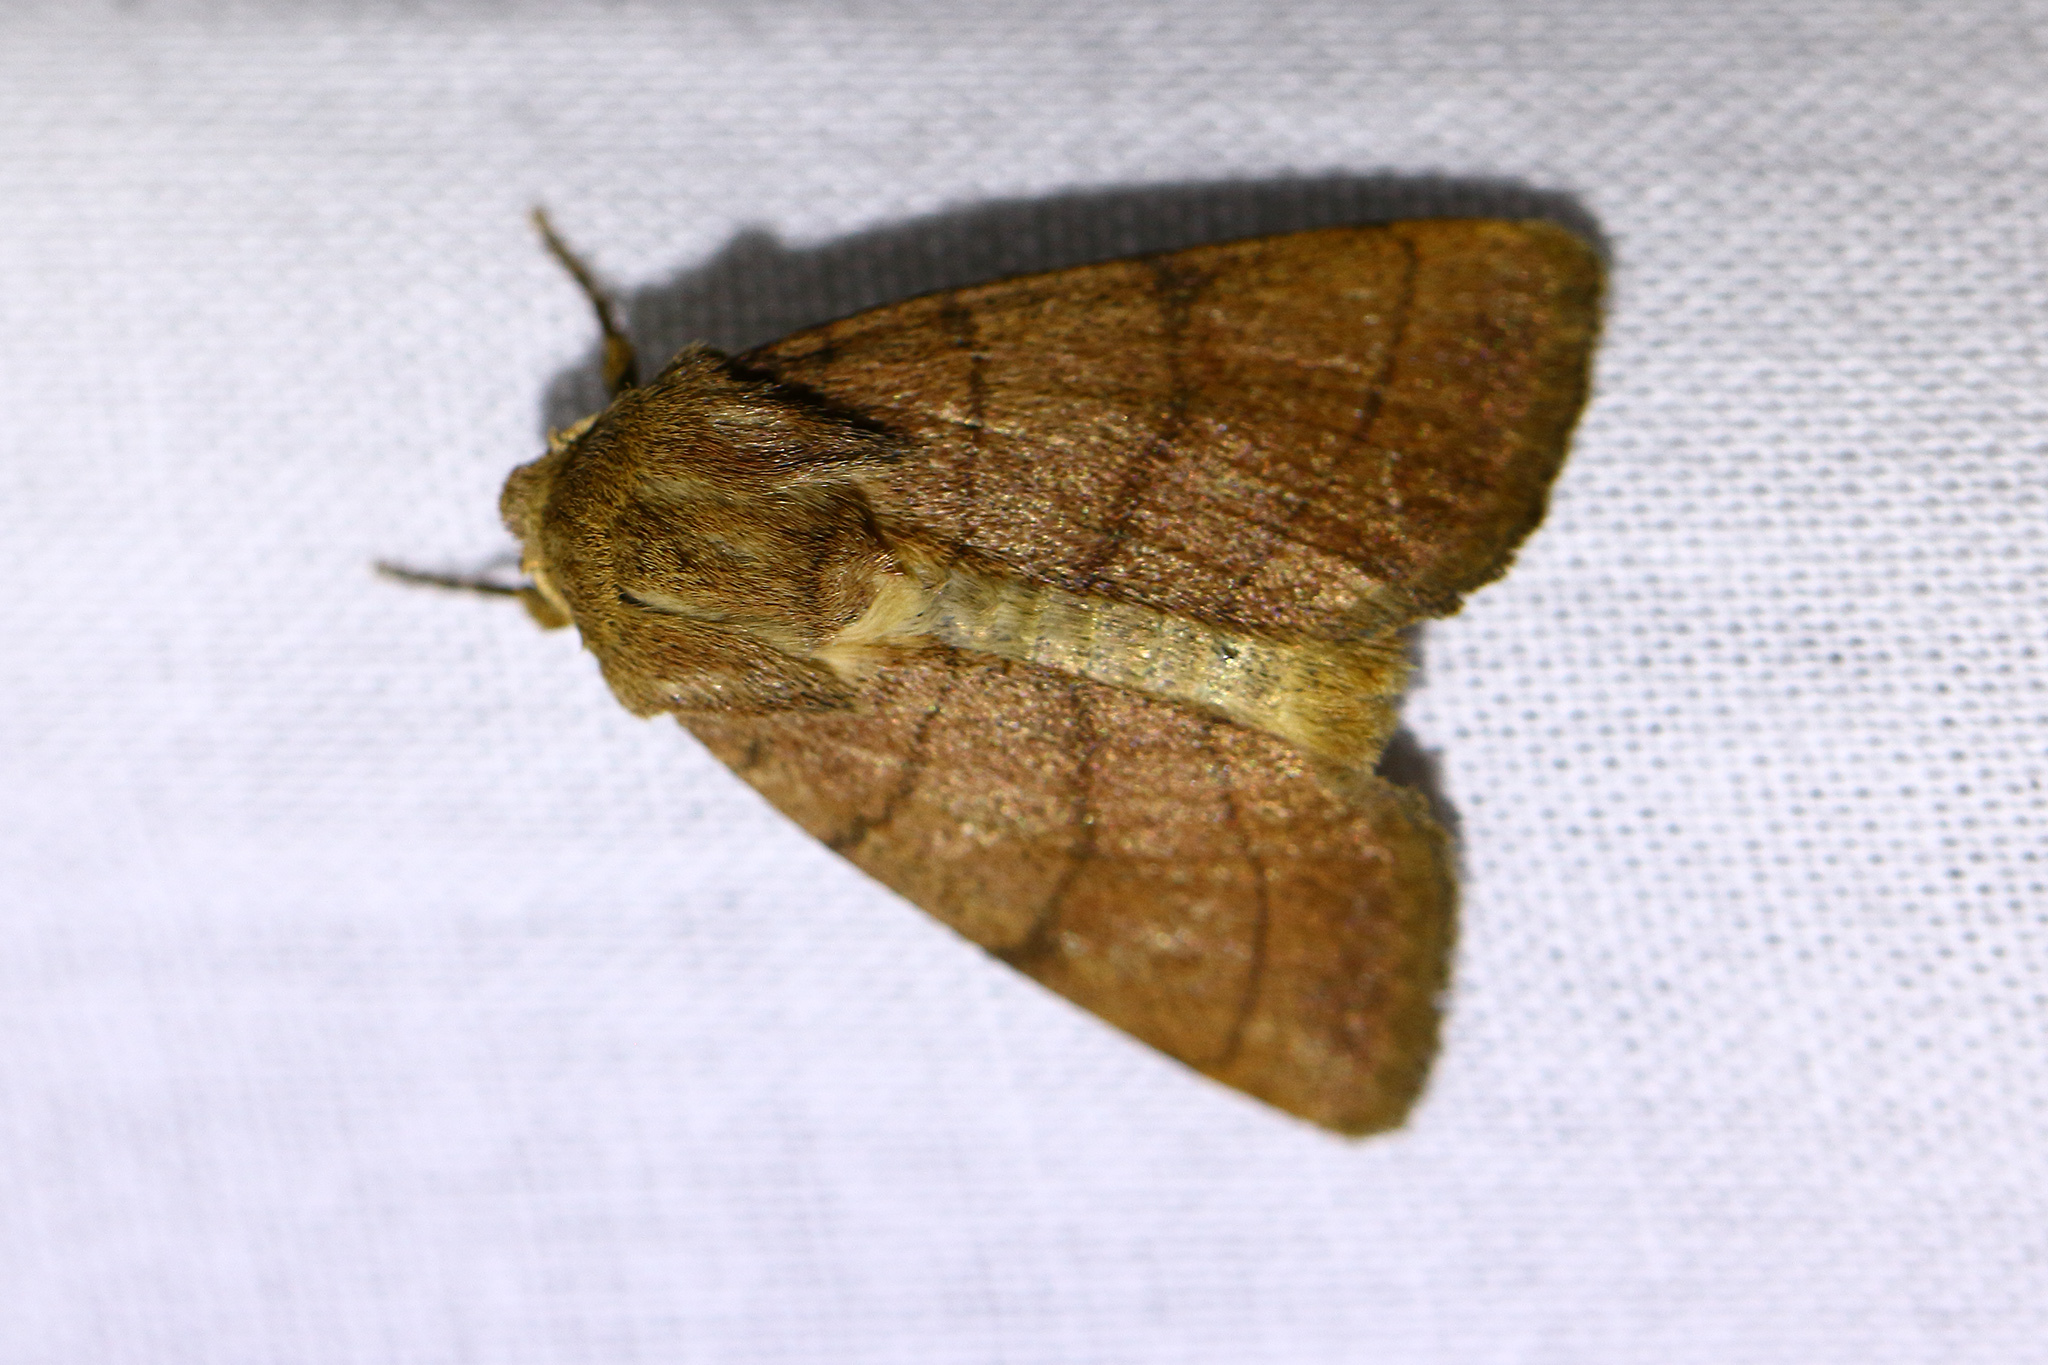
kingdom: Animalia
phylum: Arthropoda
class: Insecta
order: Lepidoptera
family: Noctuidae
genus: Charanyca
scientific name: Charanyca trigrammica
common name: Treble lines
